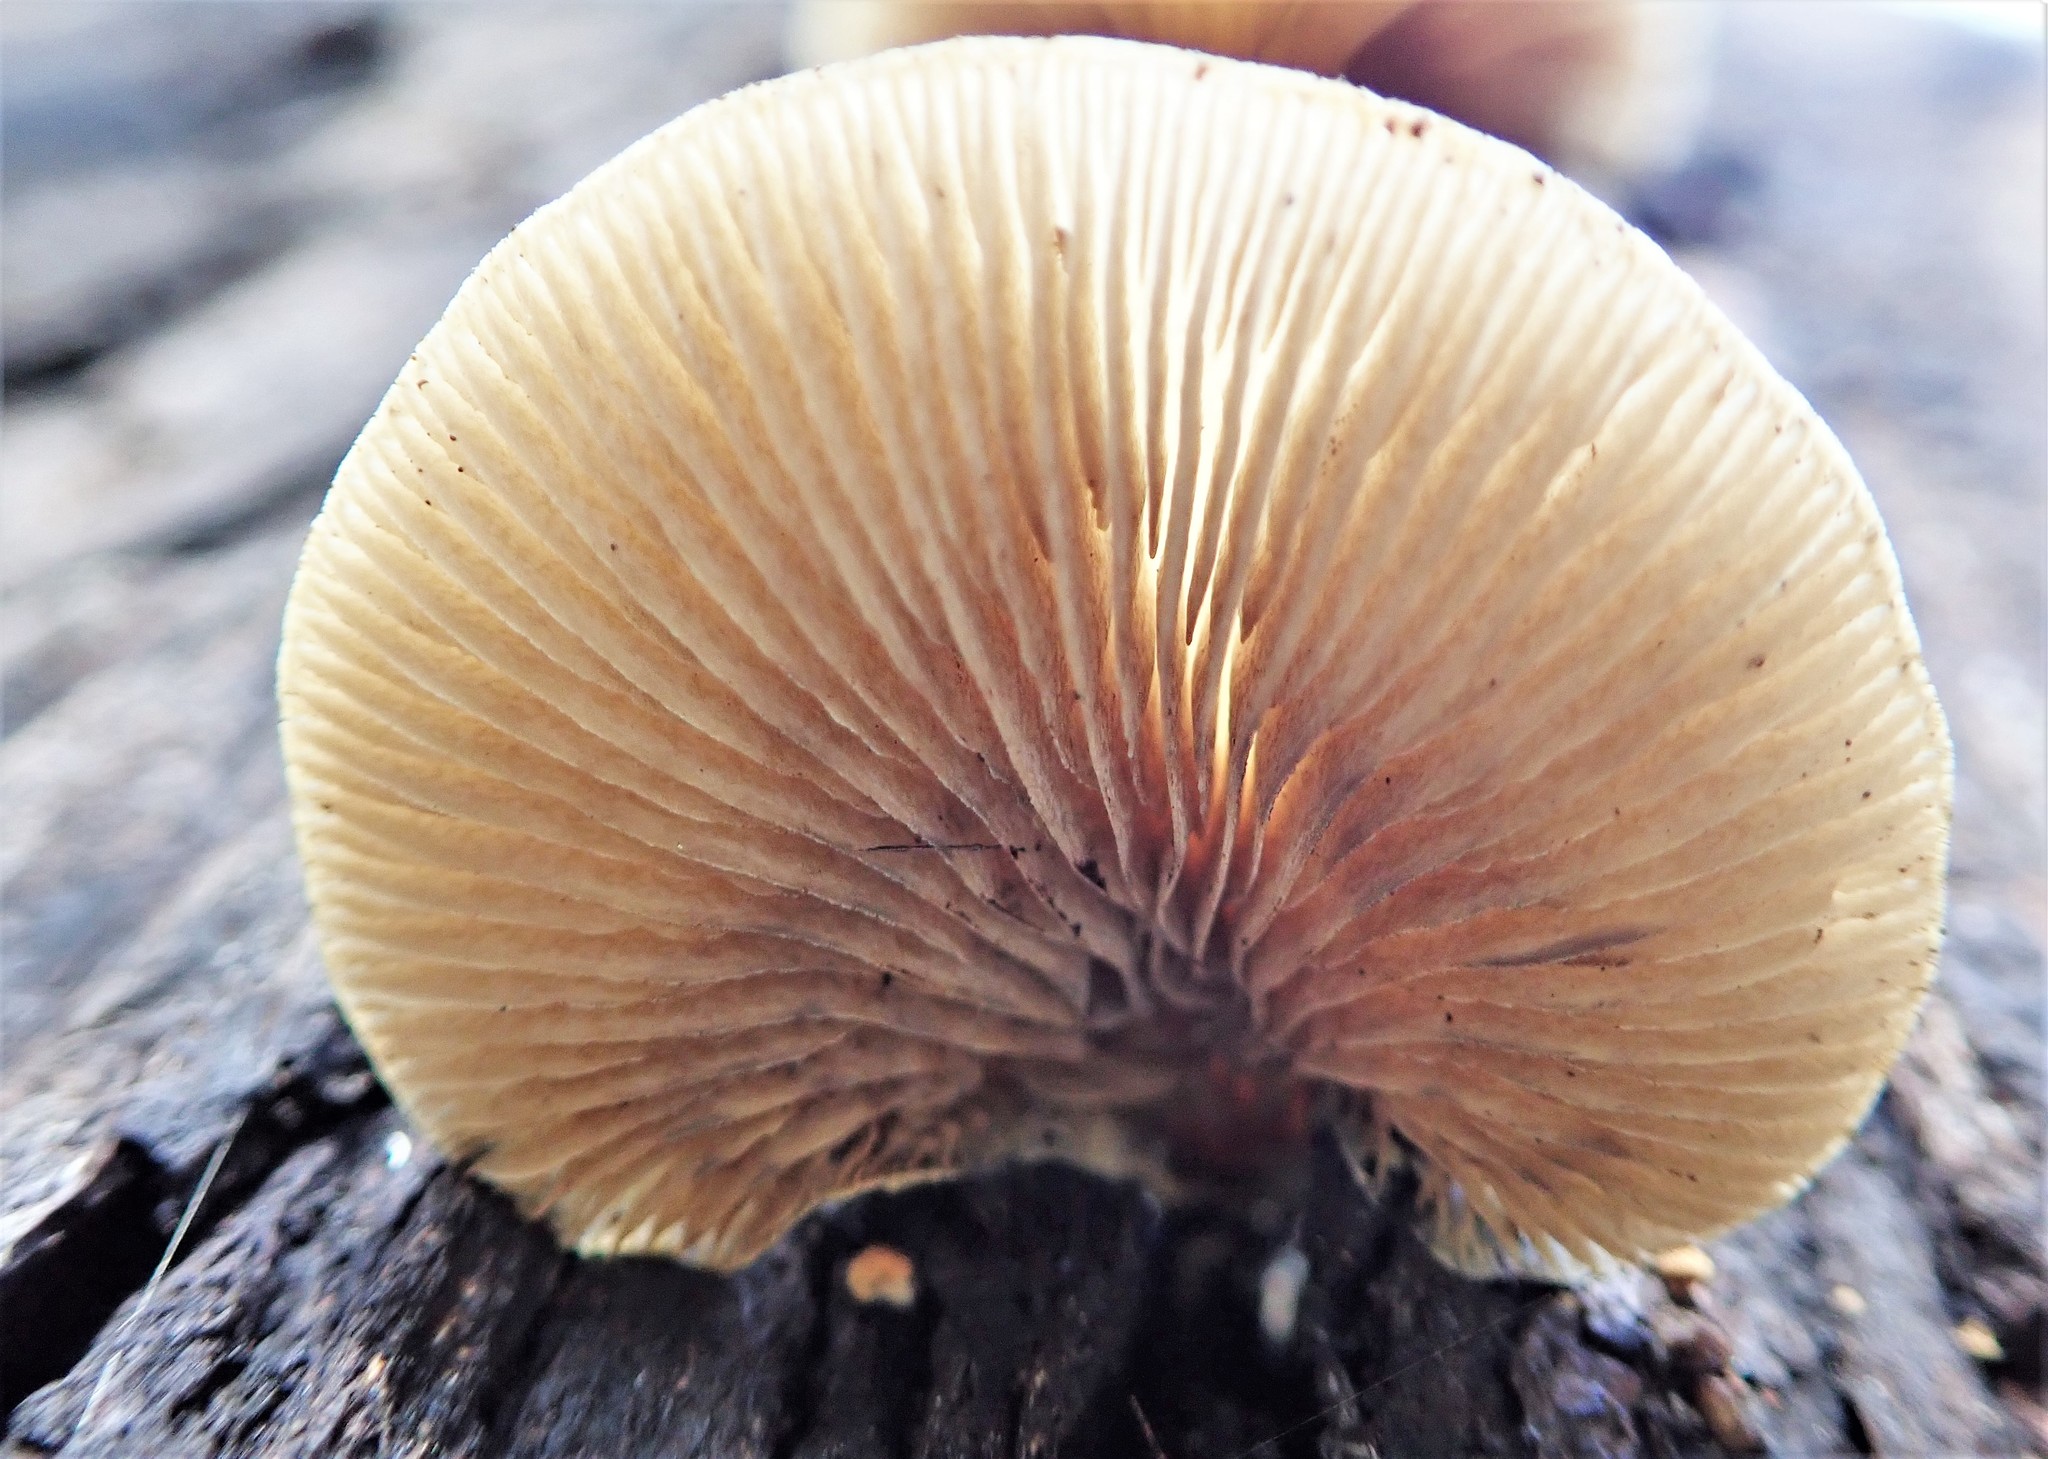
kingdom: Fungi
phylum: Basidiomycota
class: Agaricomycetes
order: Agaricales
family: Crepidotaceae
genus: Crepidotus
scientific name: Crepidotus mollis
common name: Peeling oysterling
